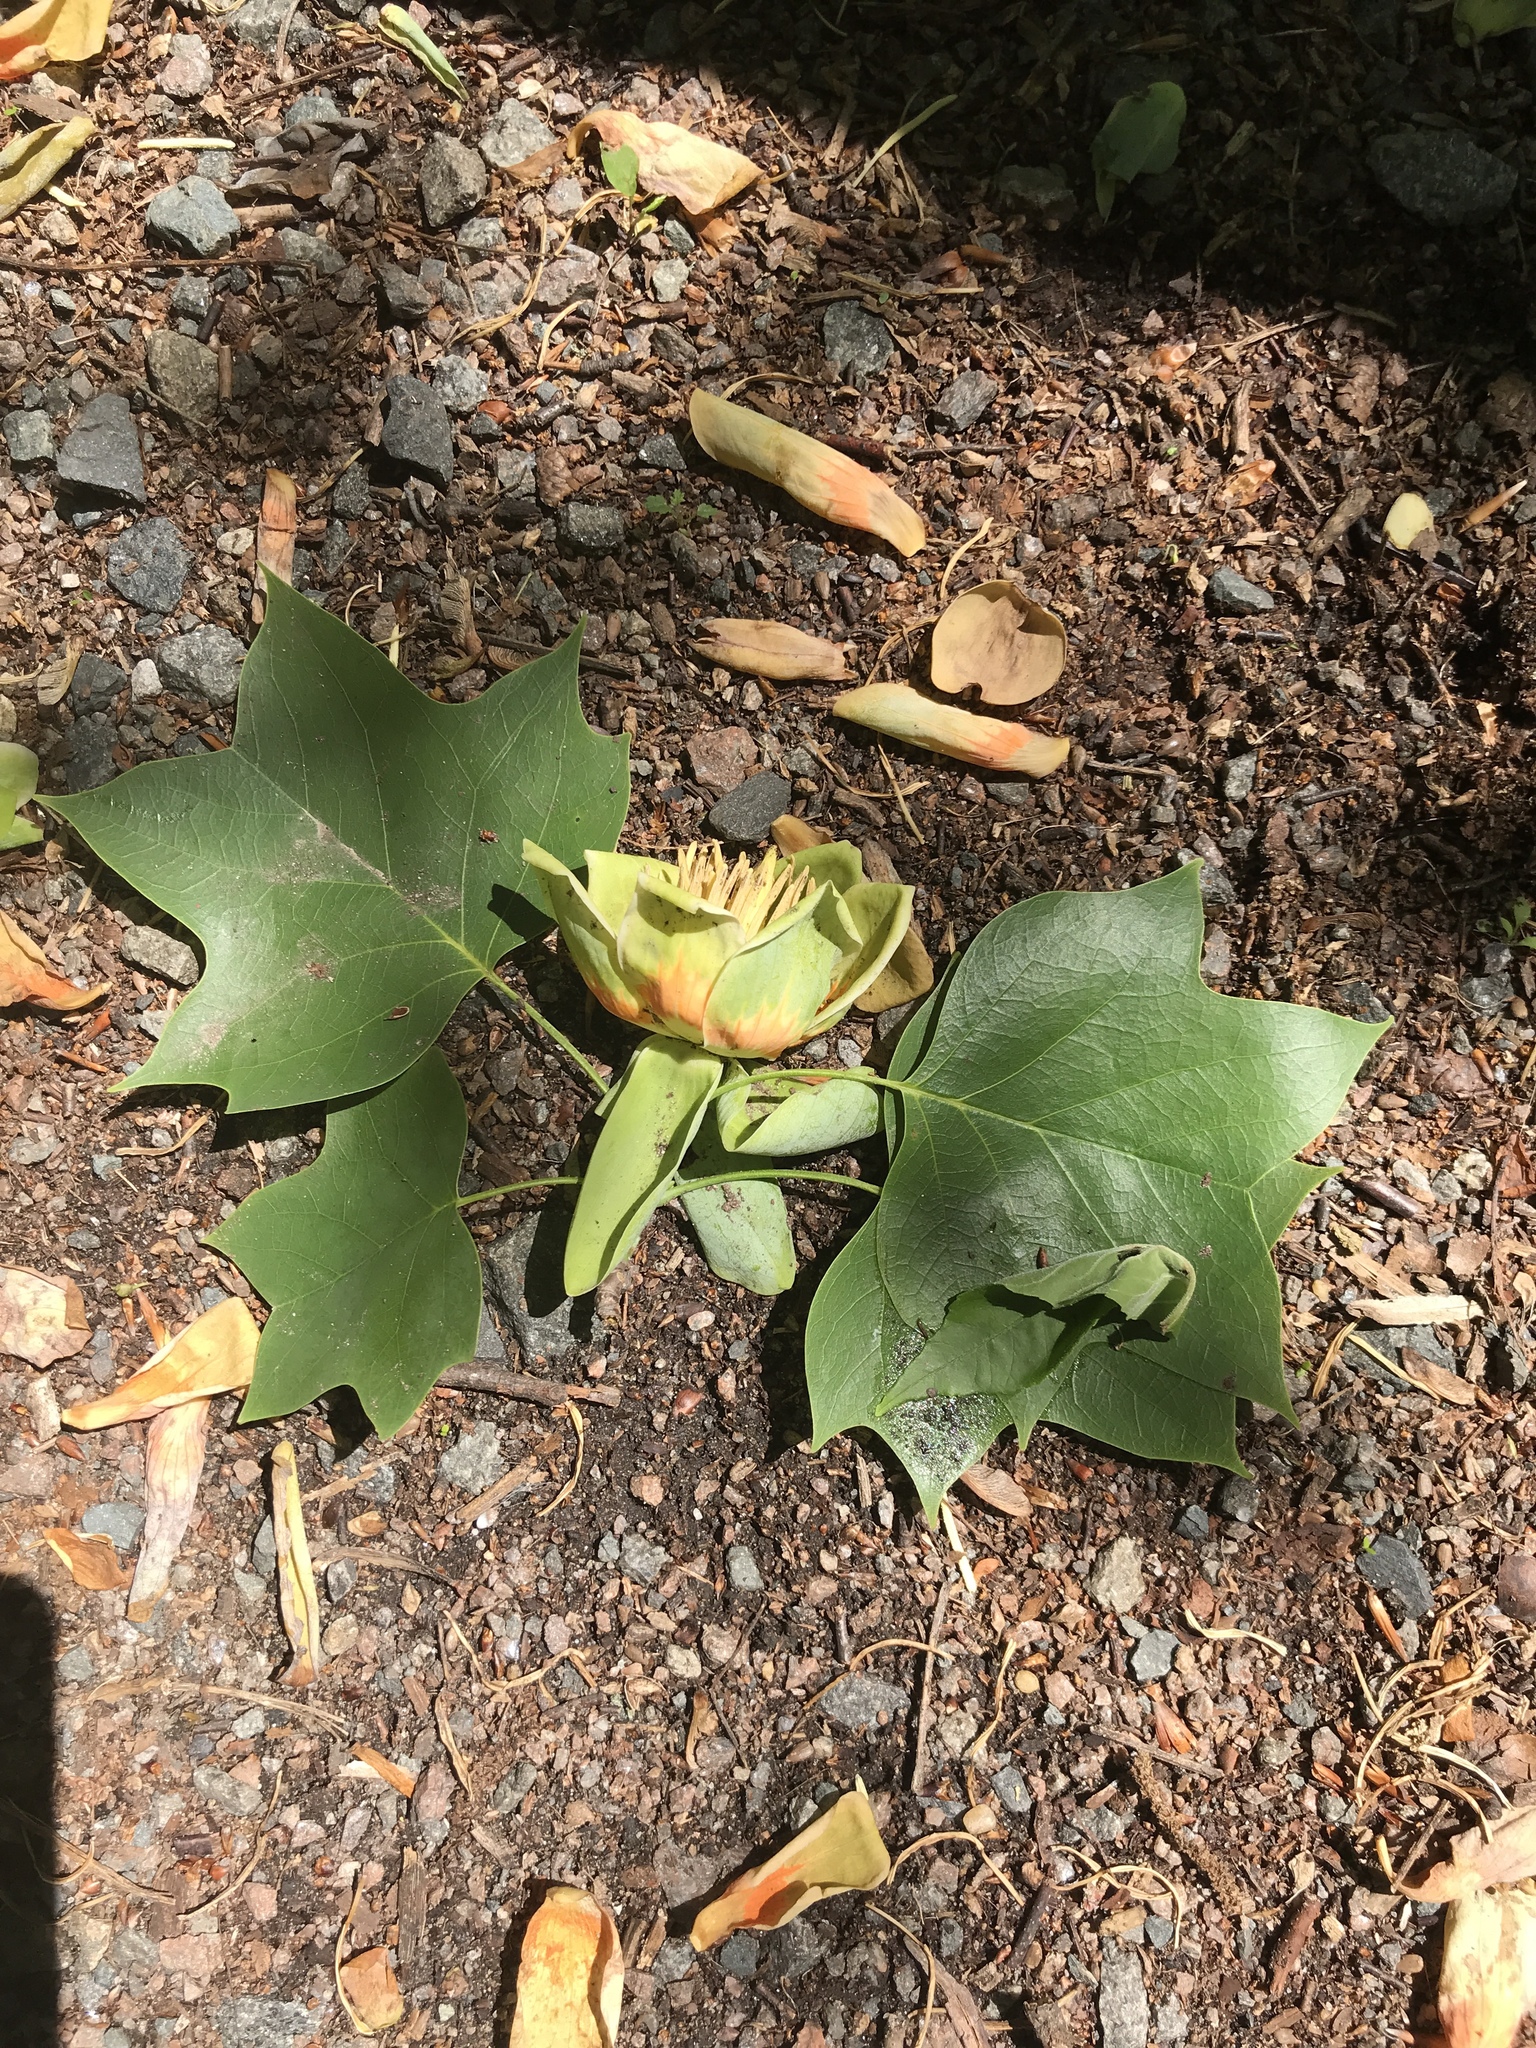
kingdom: Plantae
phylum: Tracheophyta
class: Magnoliopsida
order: Magnoliales
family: Magnoliaceae
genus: Liriodendron
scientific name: Liriodendron tulipifera
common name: Tulip tree
